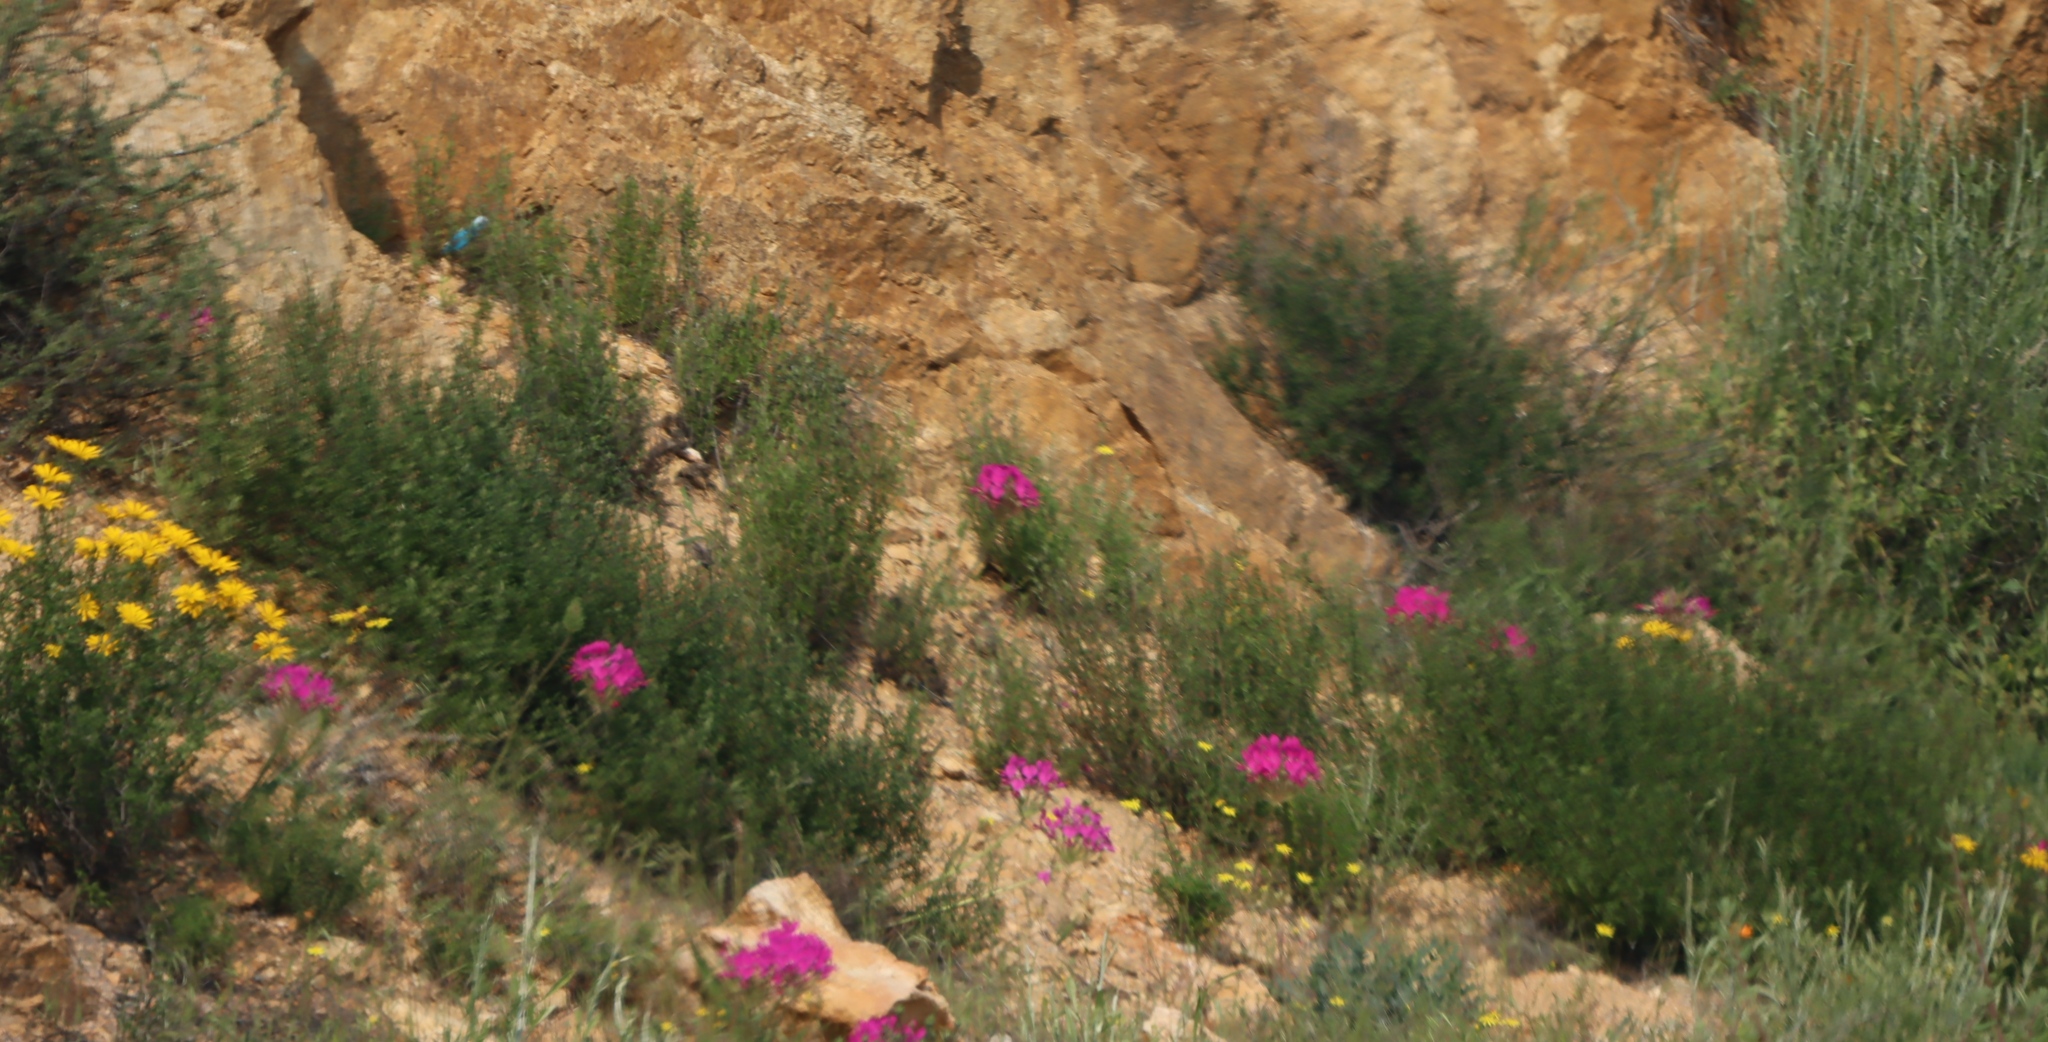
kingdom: Plantae
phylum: Tracheophyta
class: Magnoliopsida
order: Geraniales
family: Geraniaceae
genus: Pelargonium
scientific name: Pelargonium incrassatum
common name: Namaqualand beauty
